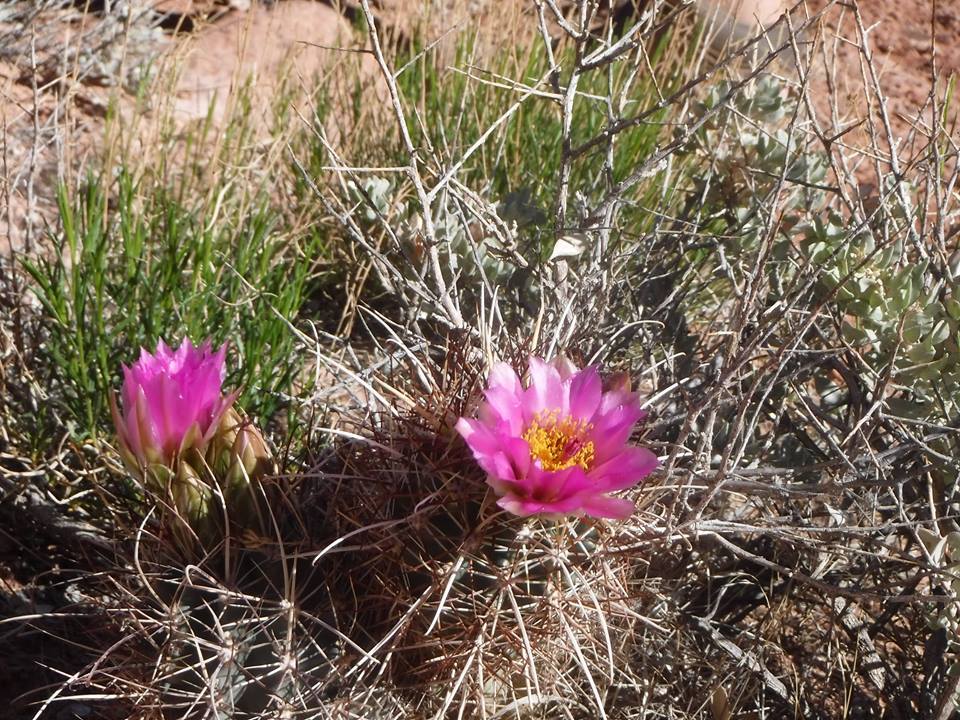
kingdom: Plantae
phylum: Tracheophyta
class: Magnoliopsida
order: Caryophyllales
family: Cactaceae
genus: Sclerocactus
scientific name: Sclerocactus parviflorus
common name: Small-flower fishhook cactus
